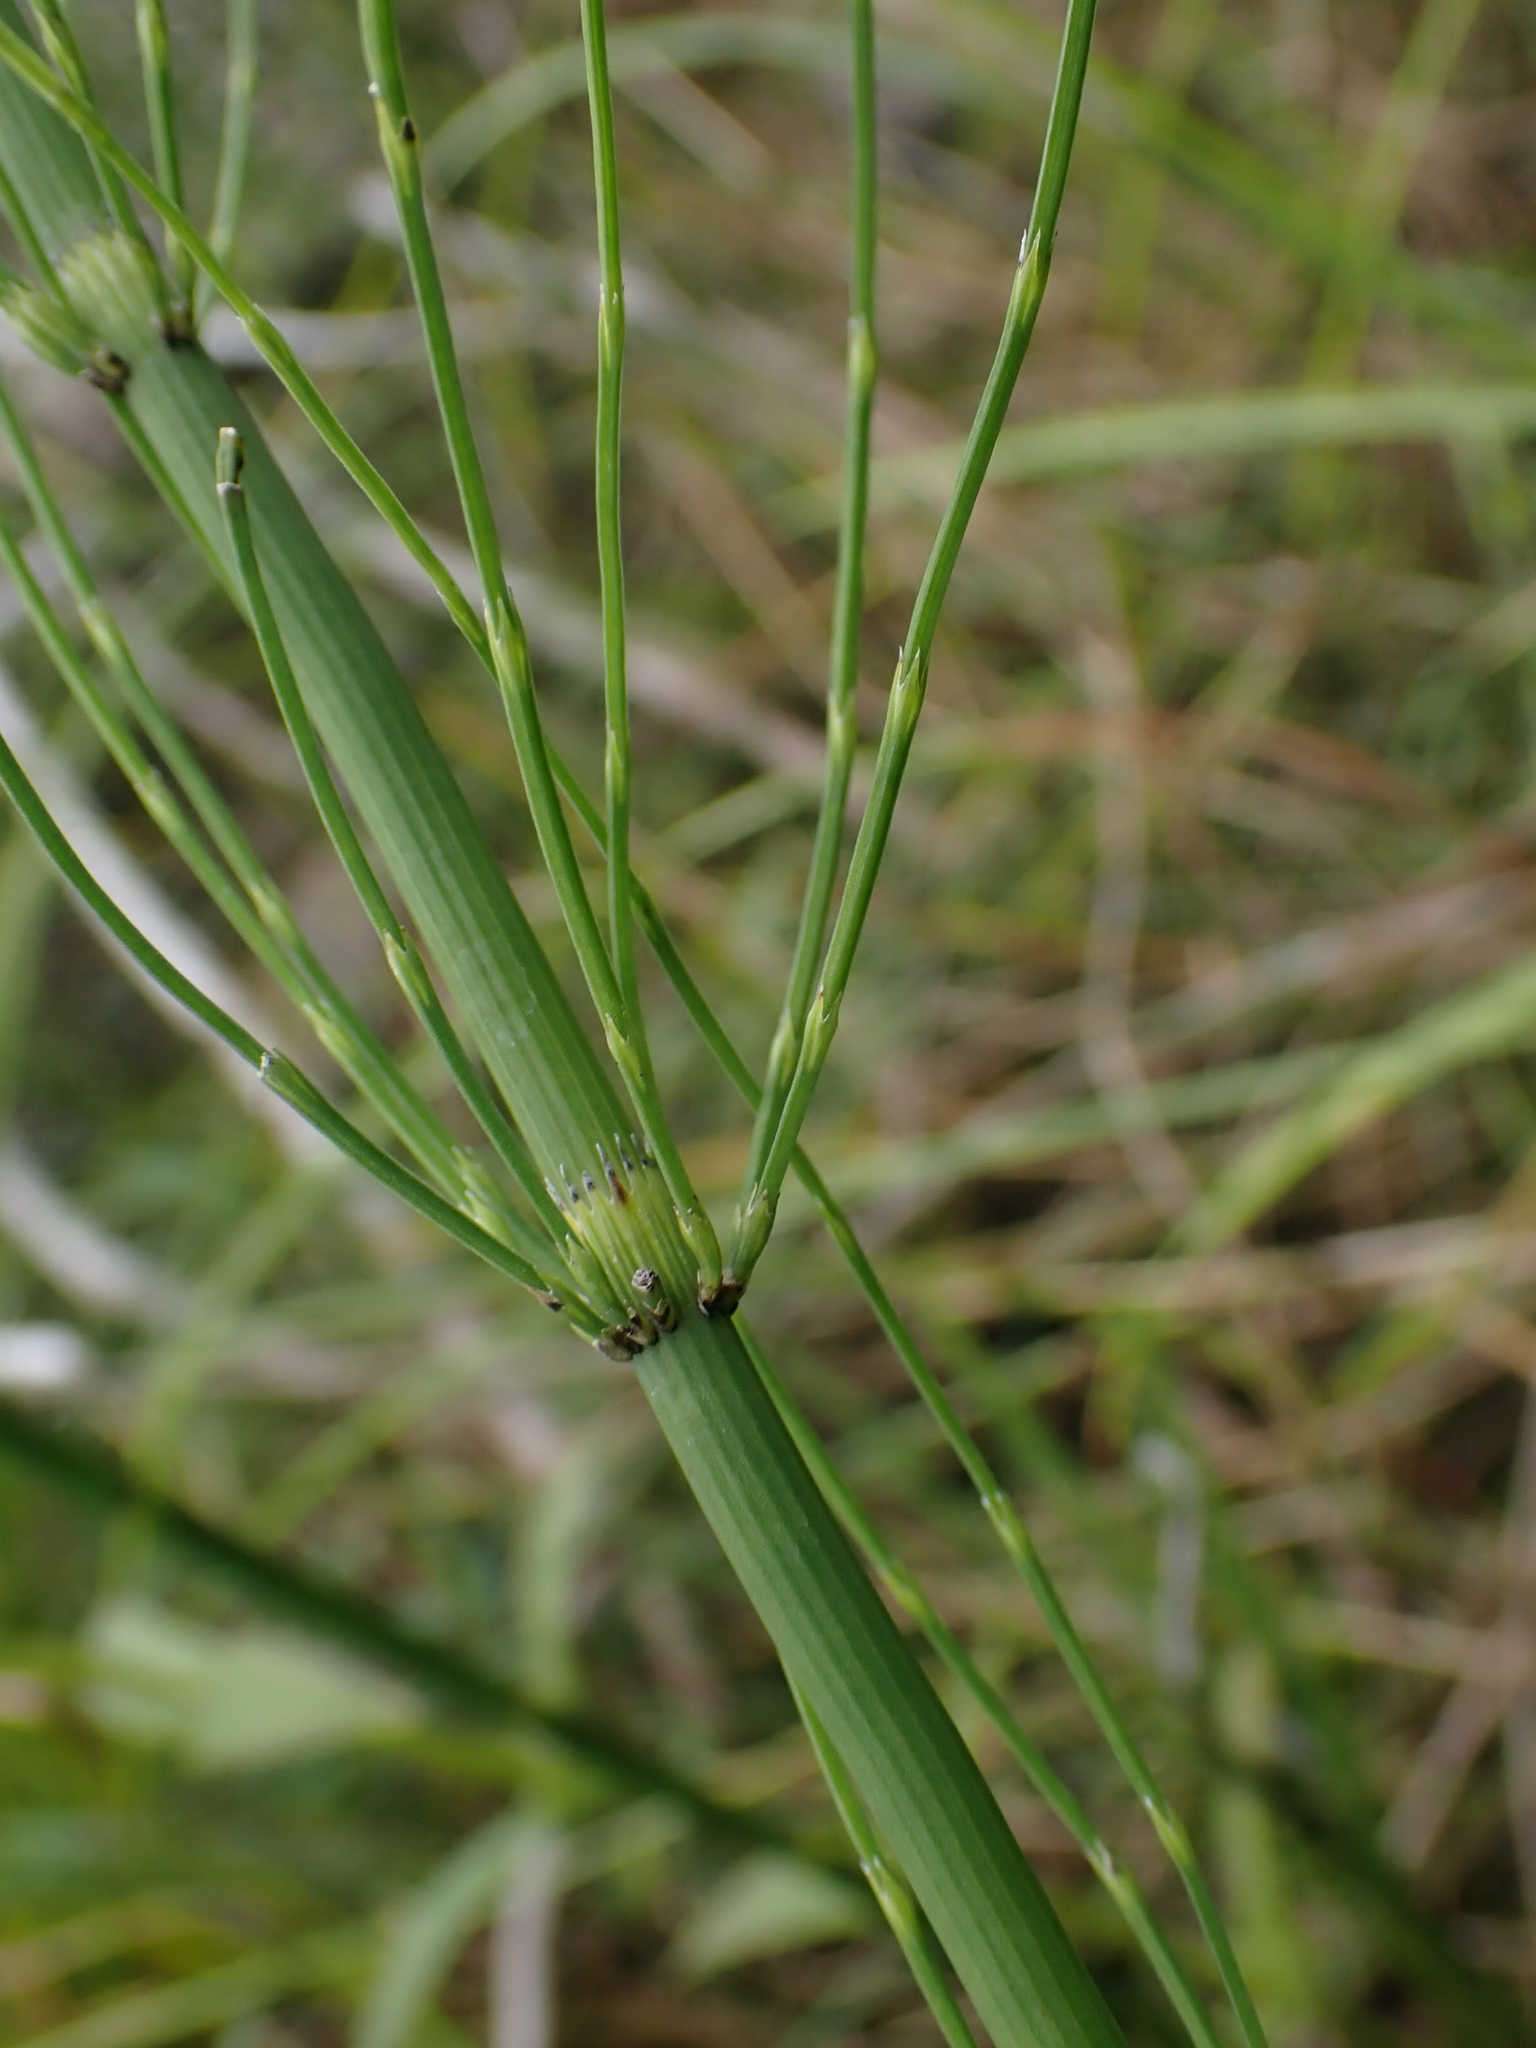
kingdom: Plantae
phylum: Tracheophyta
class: Polypodiopsida
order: Equisetales
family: Equisetaceae
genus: Equisetum
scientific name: Equisetum fluviatile
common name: Water horsetail
